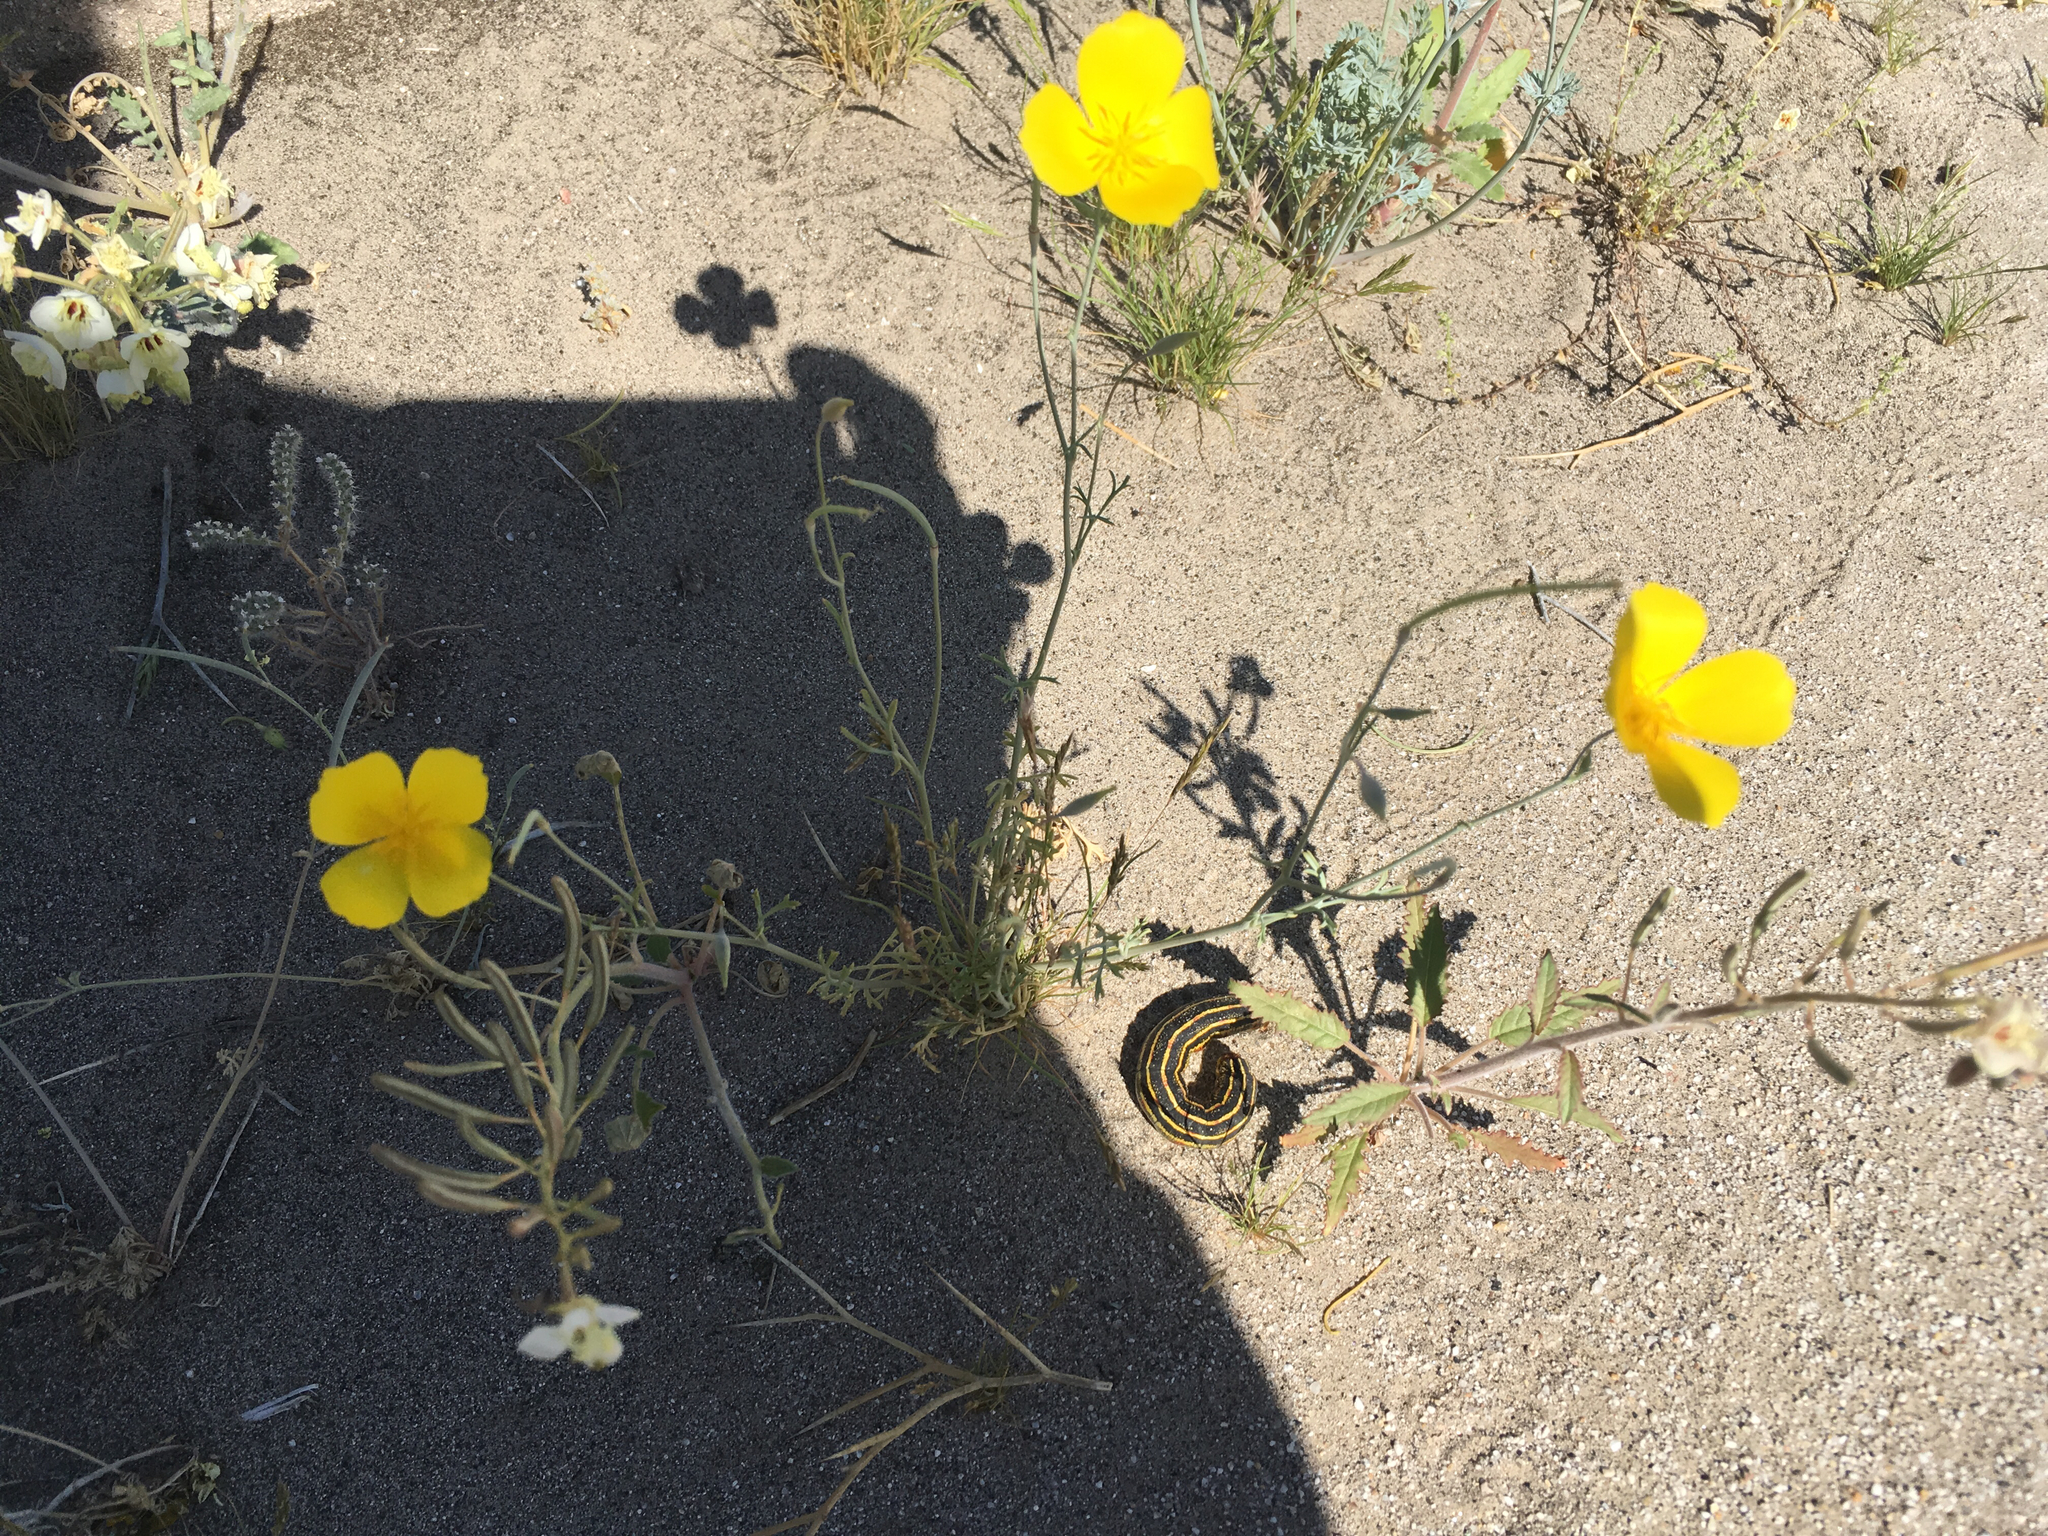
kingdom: Plantae
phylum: Tracheophyta
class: Magnoliopsida
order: Ranunculales
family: Papaveraceae
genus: Eschscholzia
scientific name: Eschscholzia parishii
